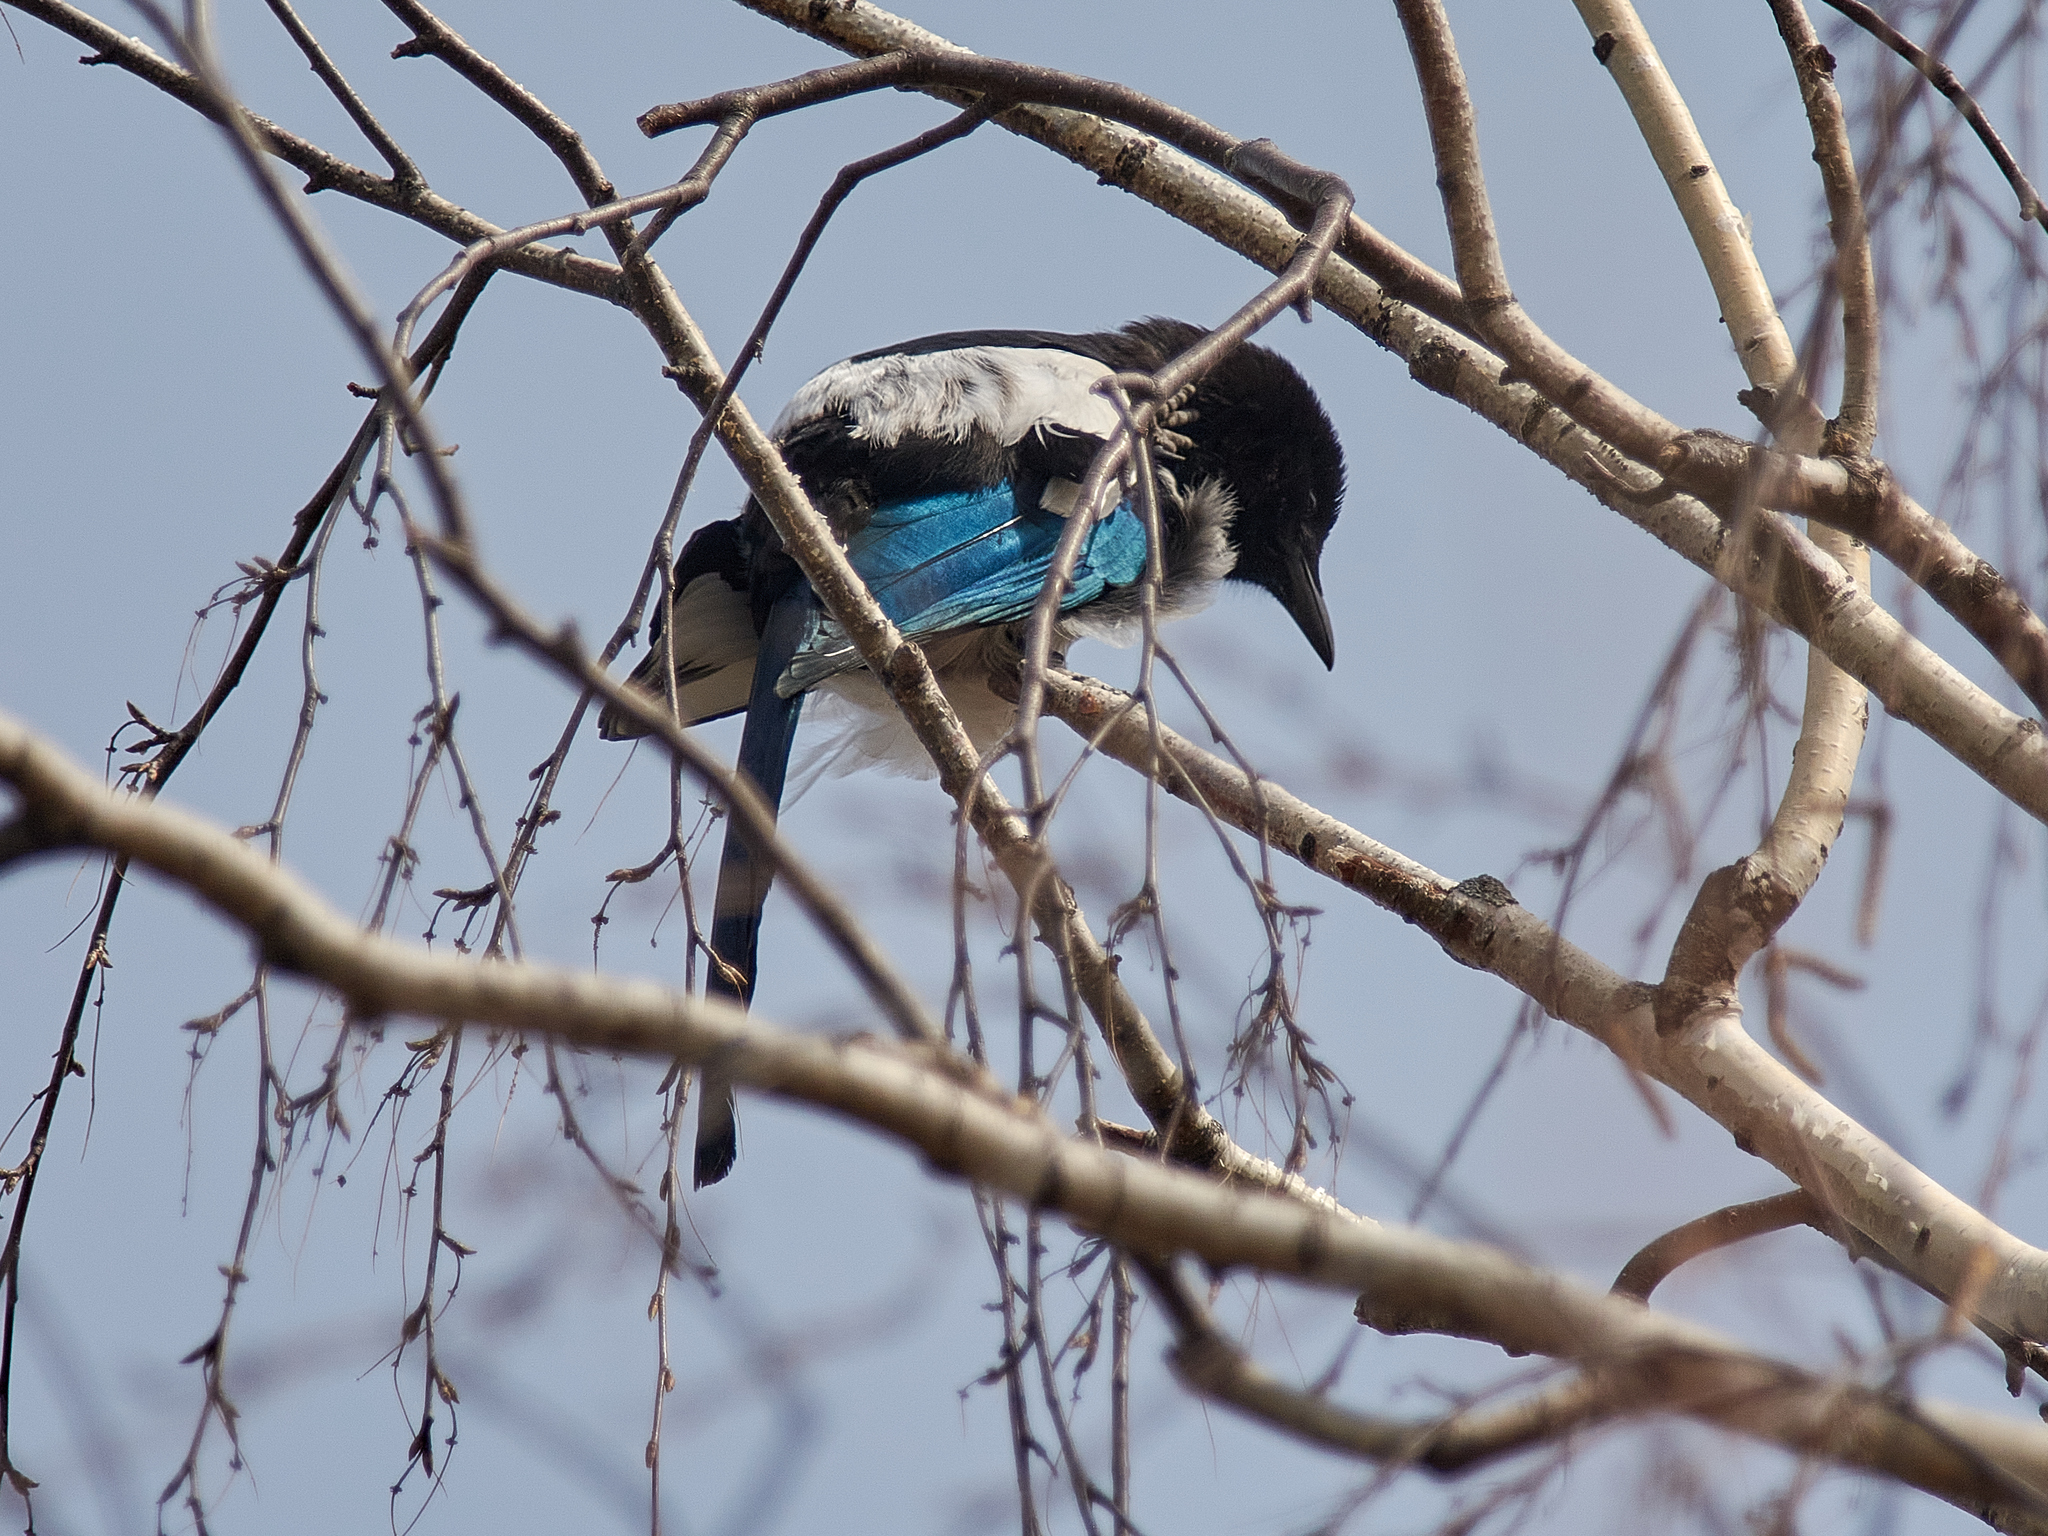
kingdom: Animalia
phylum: Chordata
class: Aves
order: Passeriformes
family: Corvidae
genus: Pica
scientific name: Pica pica
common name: Eurasian magpie
